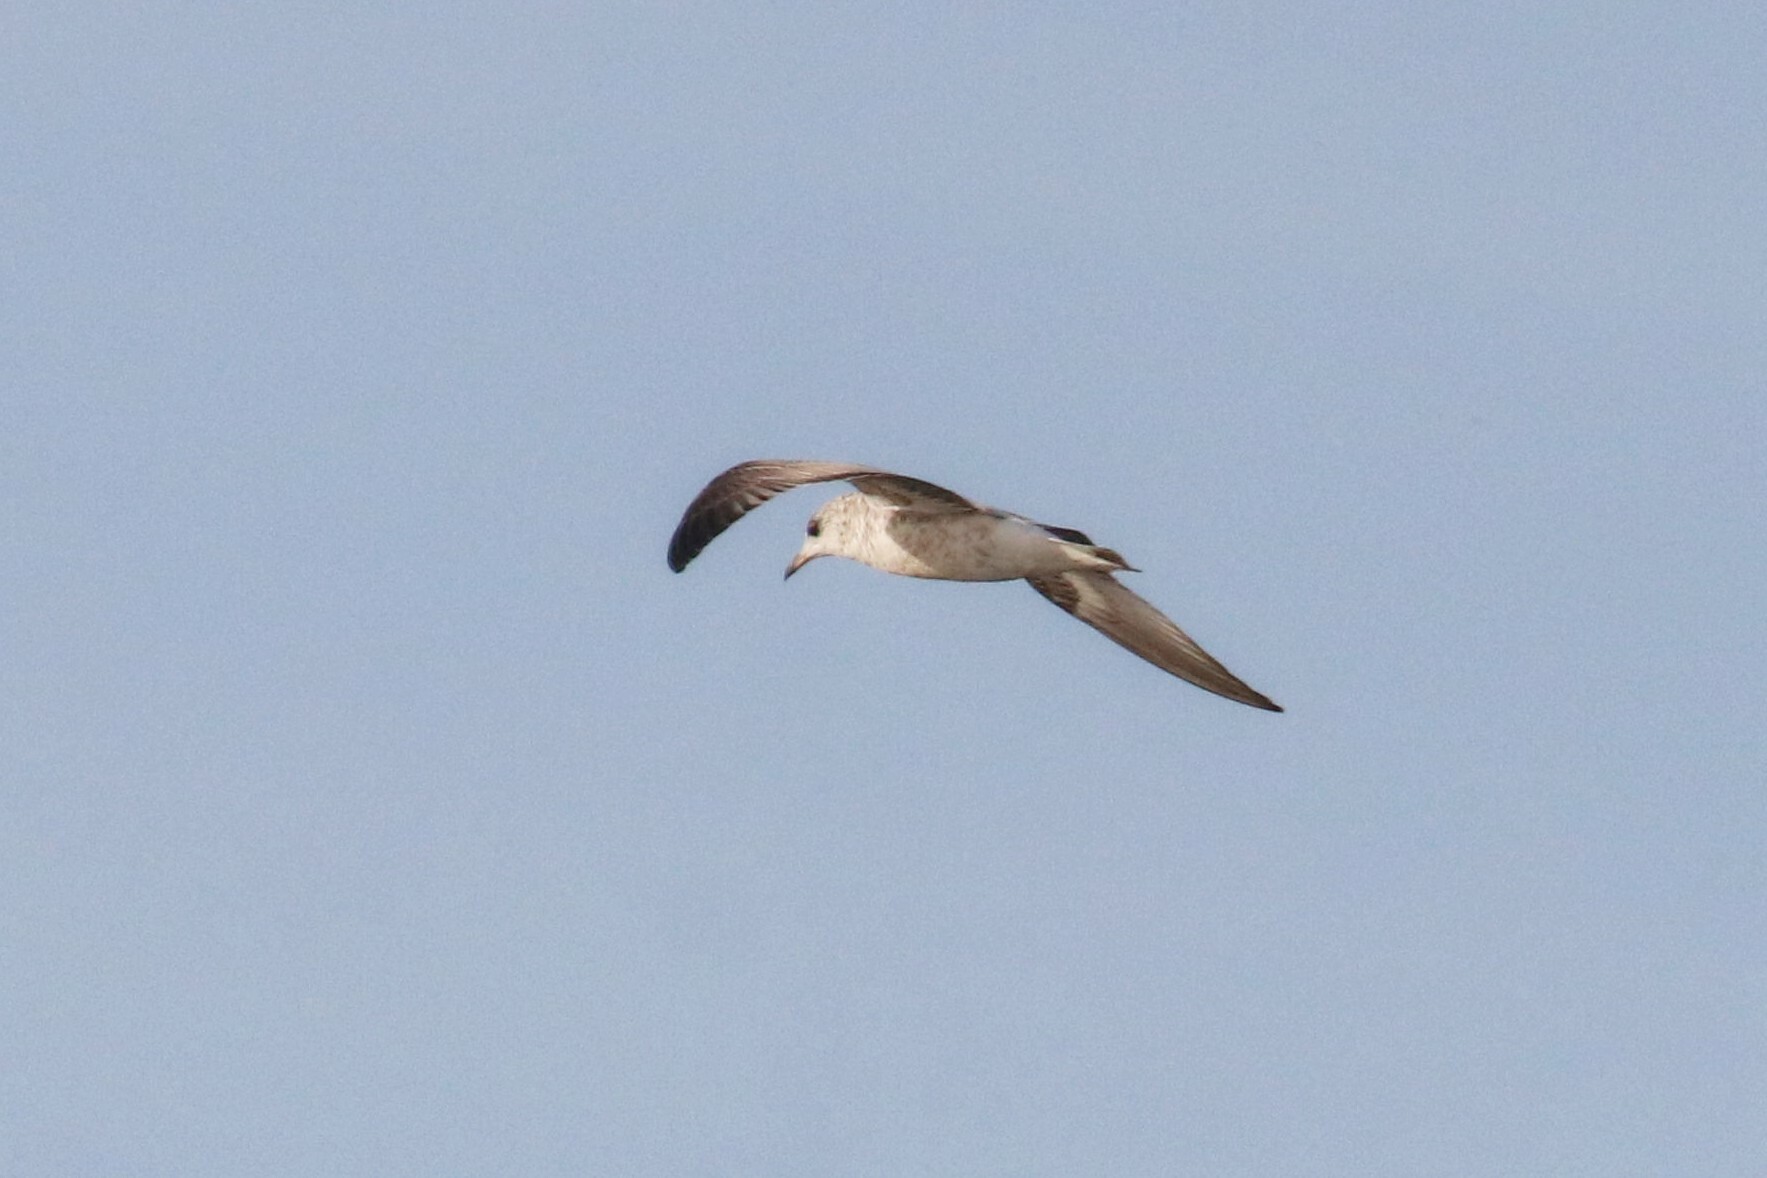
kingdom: Animalia
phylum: Chordata
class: Aves
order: Charadriiformes
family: Laridae
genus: Larus
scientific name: Larus canus
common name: Mew gull
